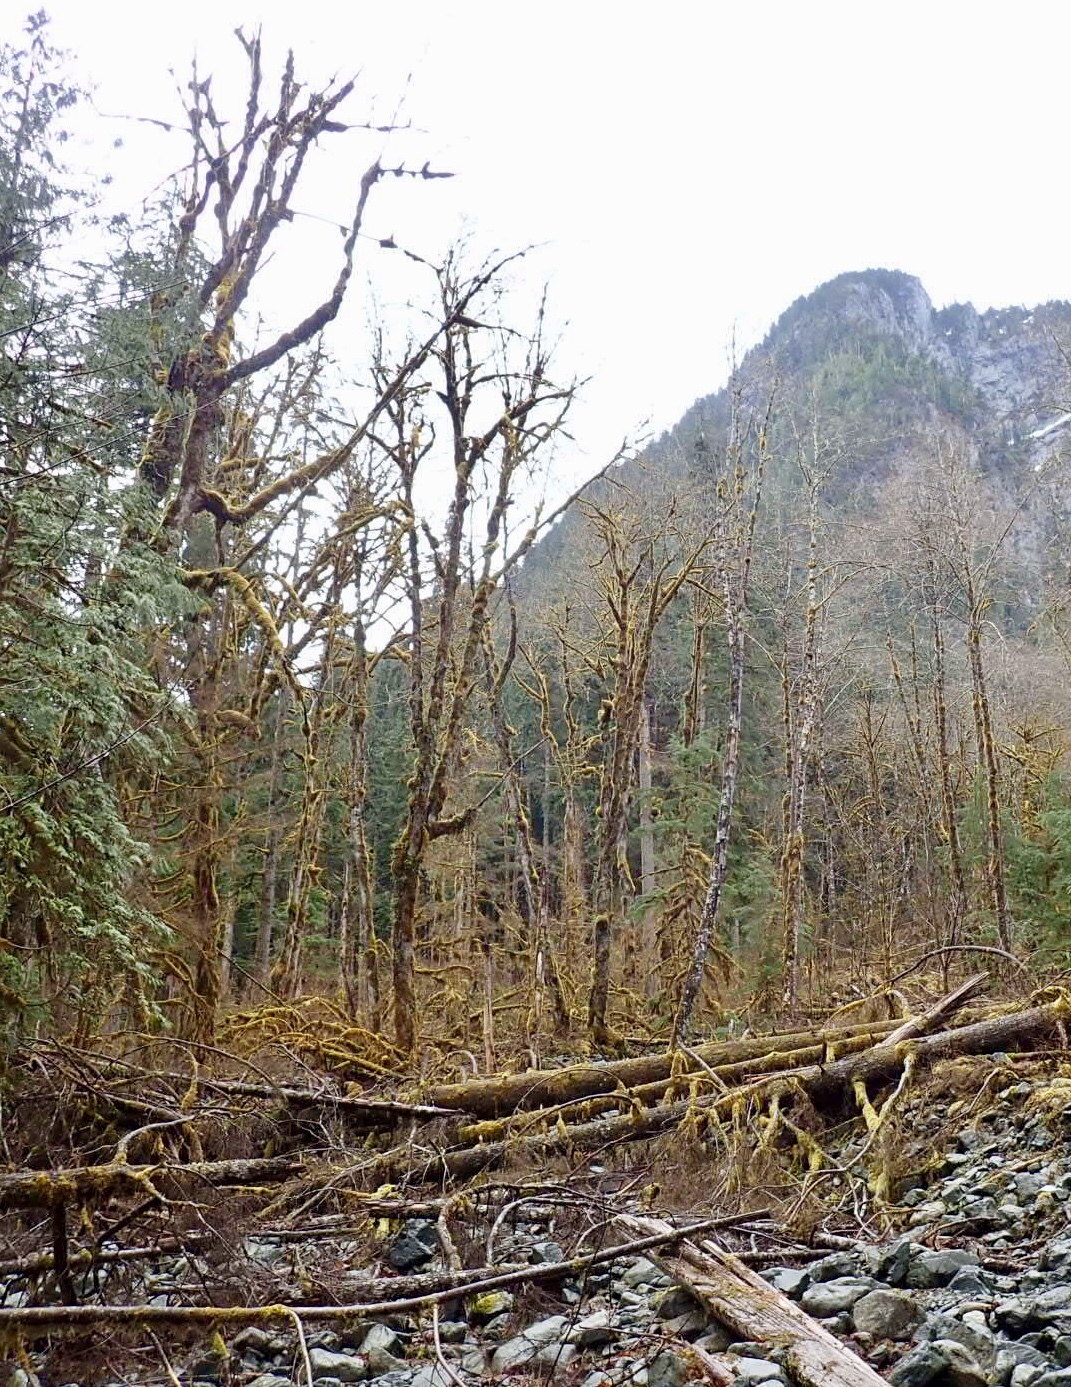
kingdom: Plantae
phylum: Tracheophyta
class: Magnoliopsida
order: Sapindales
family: Sapindaceae
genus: Acer
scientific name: Acer macrophyllum
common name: Oregon maple
